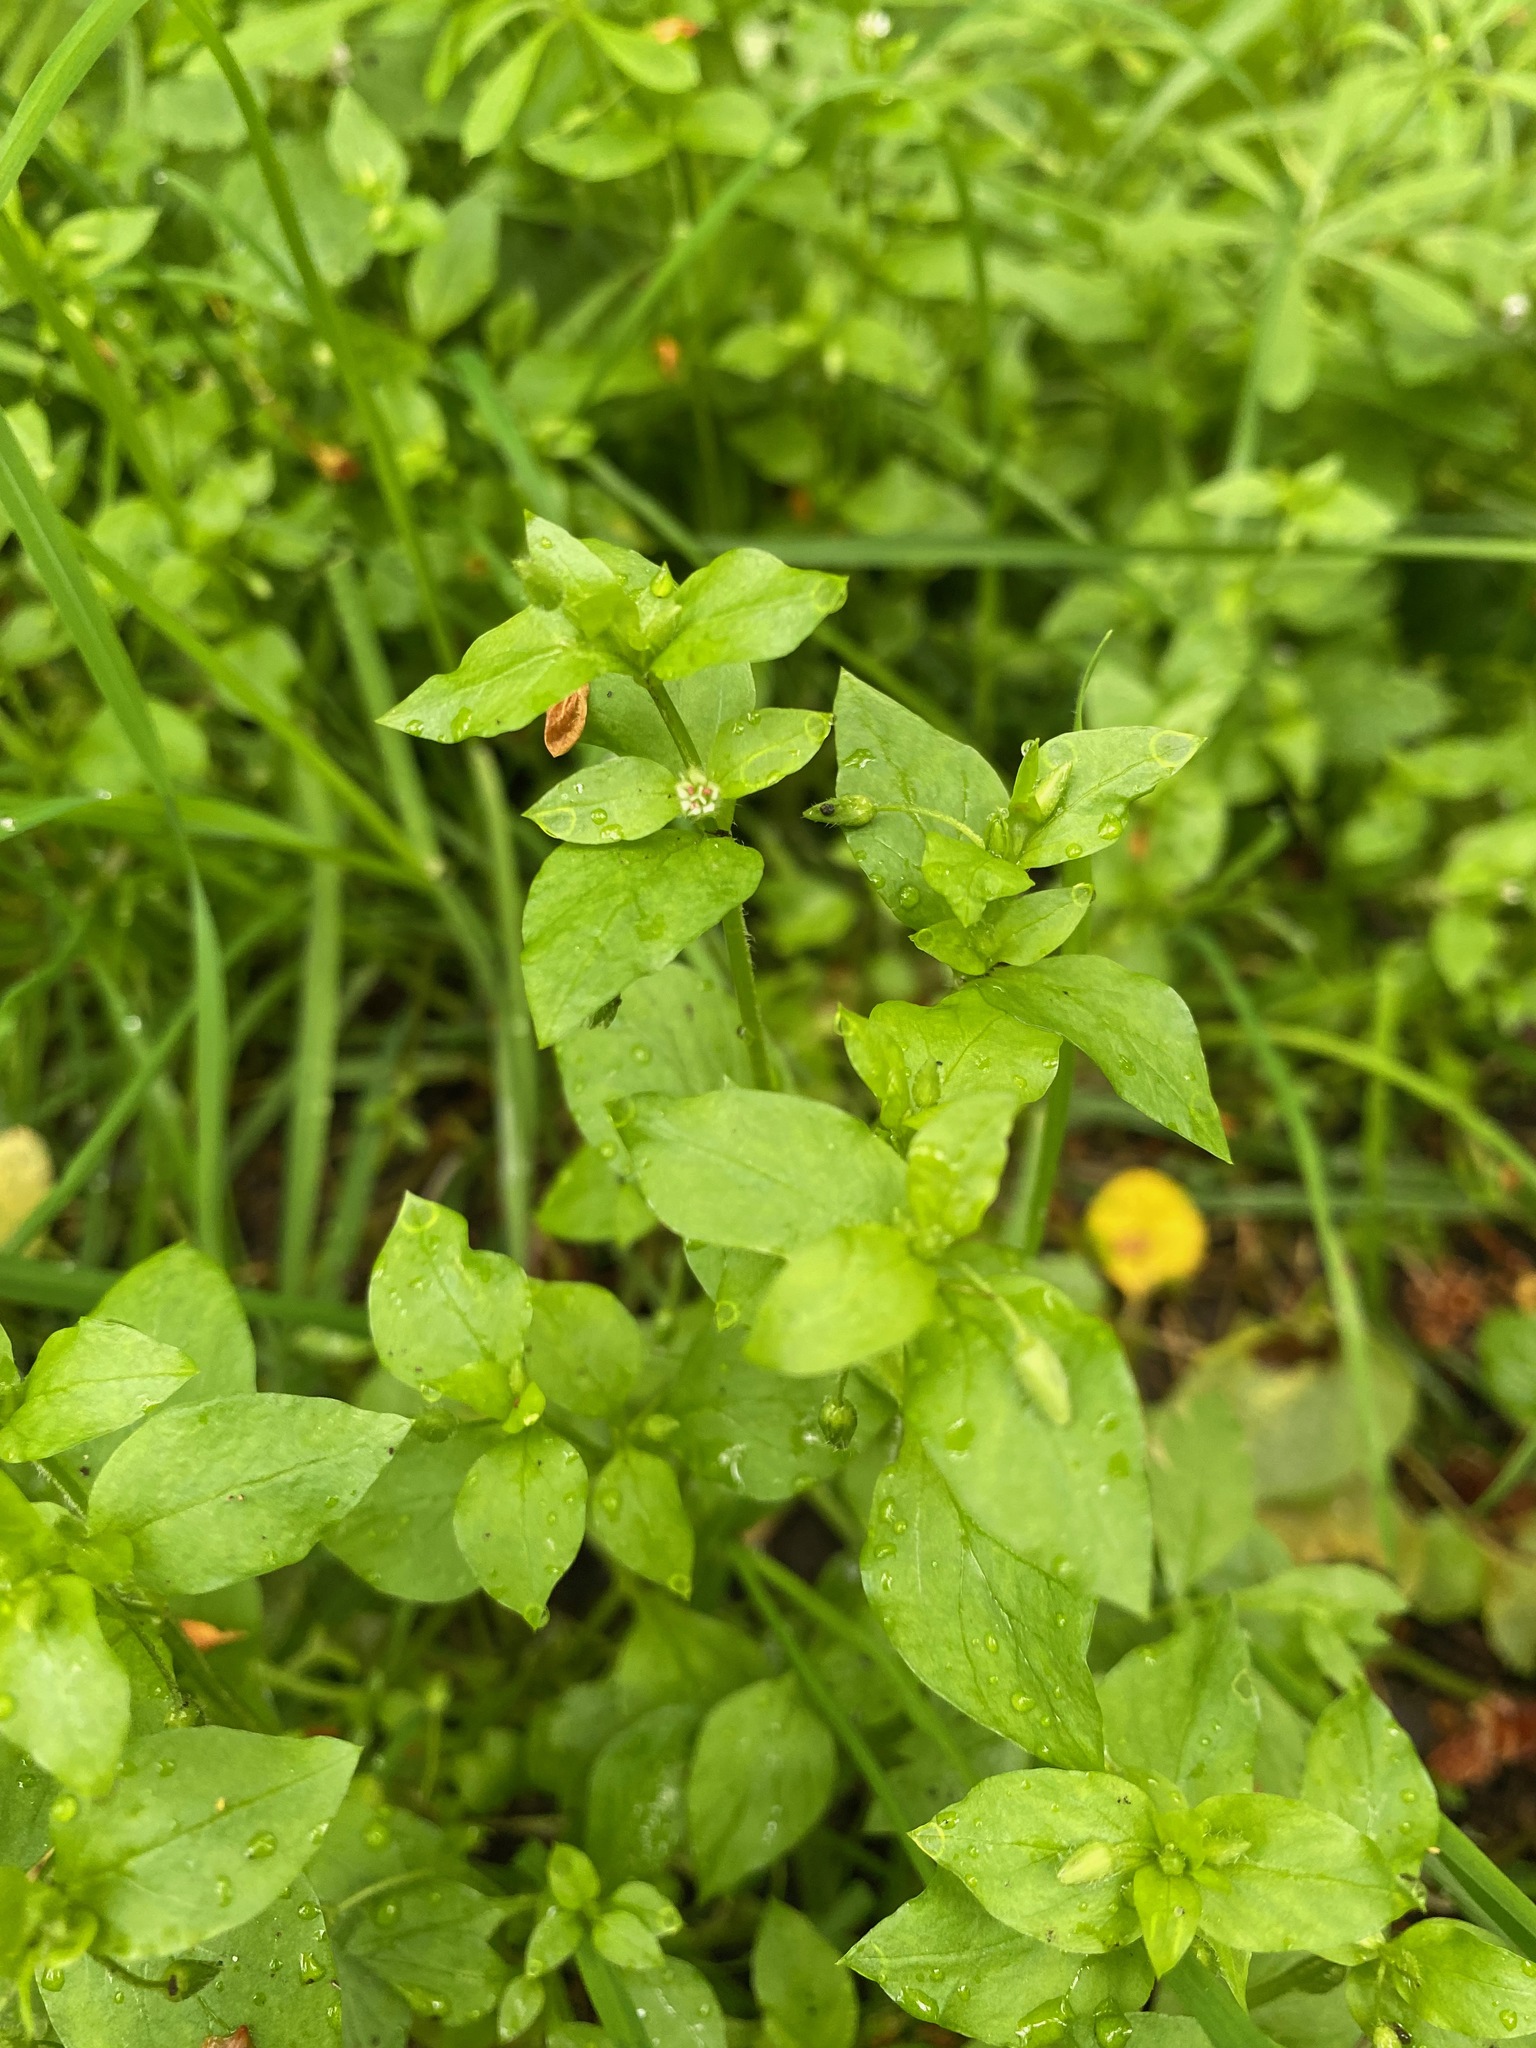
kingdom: Plantae
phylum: Tracheophyta
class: Magnoliopsida
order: Caryophyllales
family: Caryophyllaceae
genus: Stellaria
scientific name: Stellaria media
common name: Common chickweed
